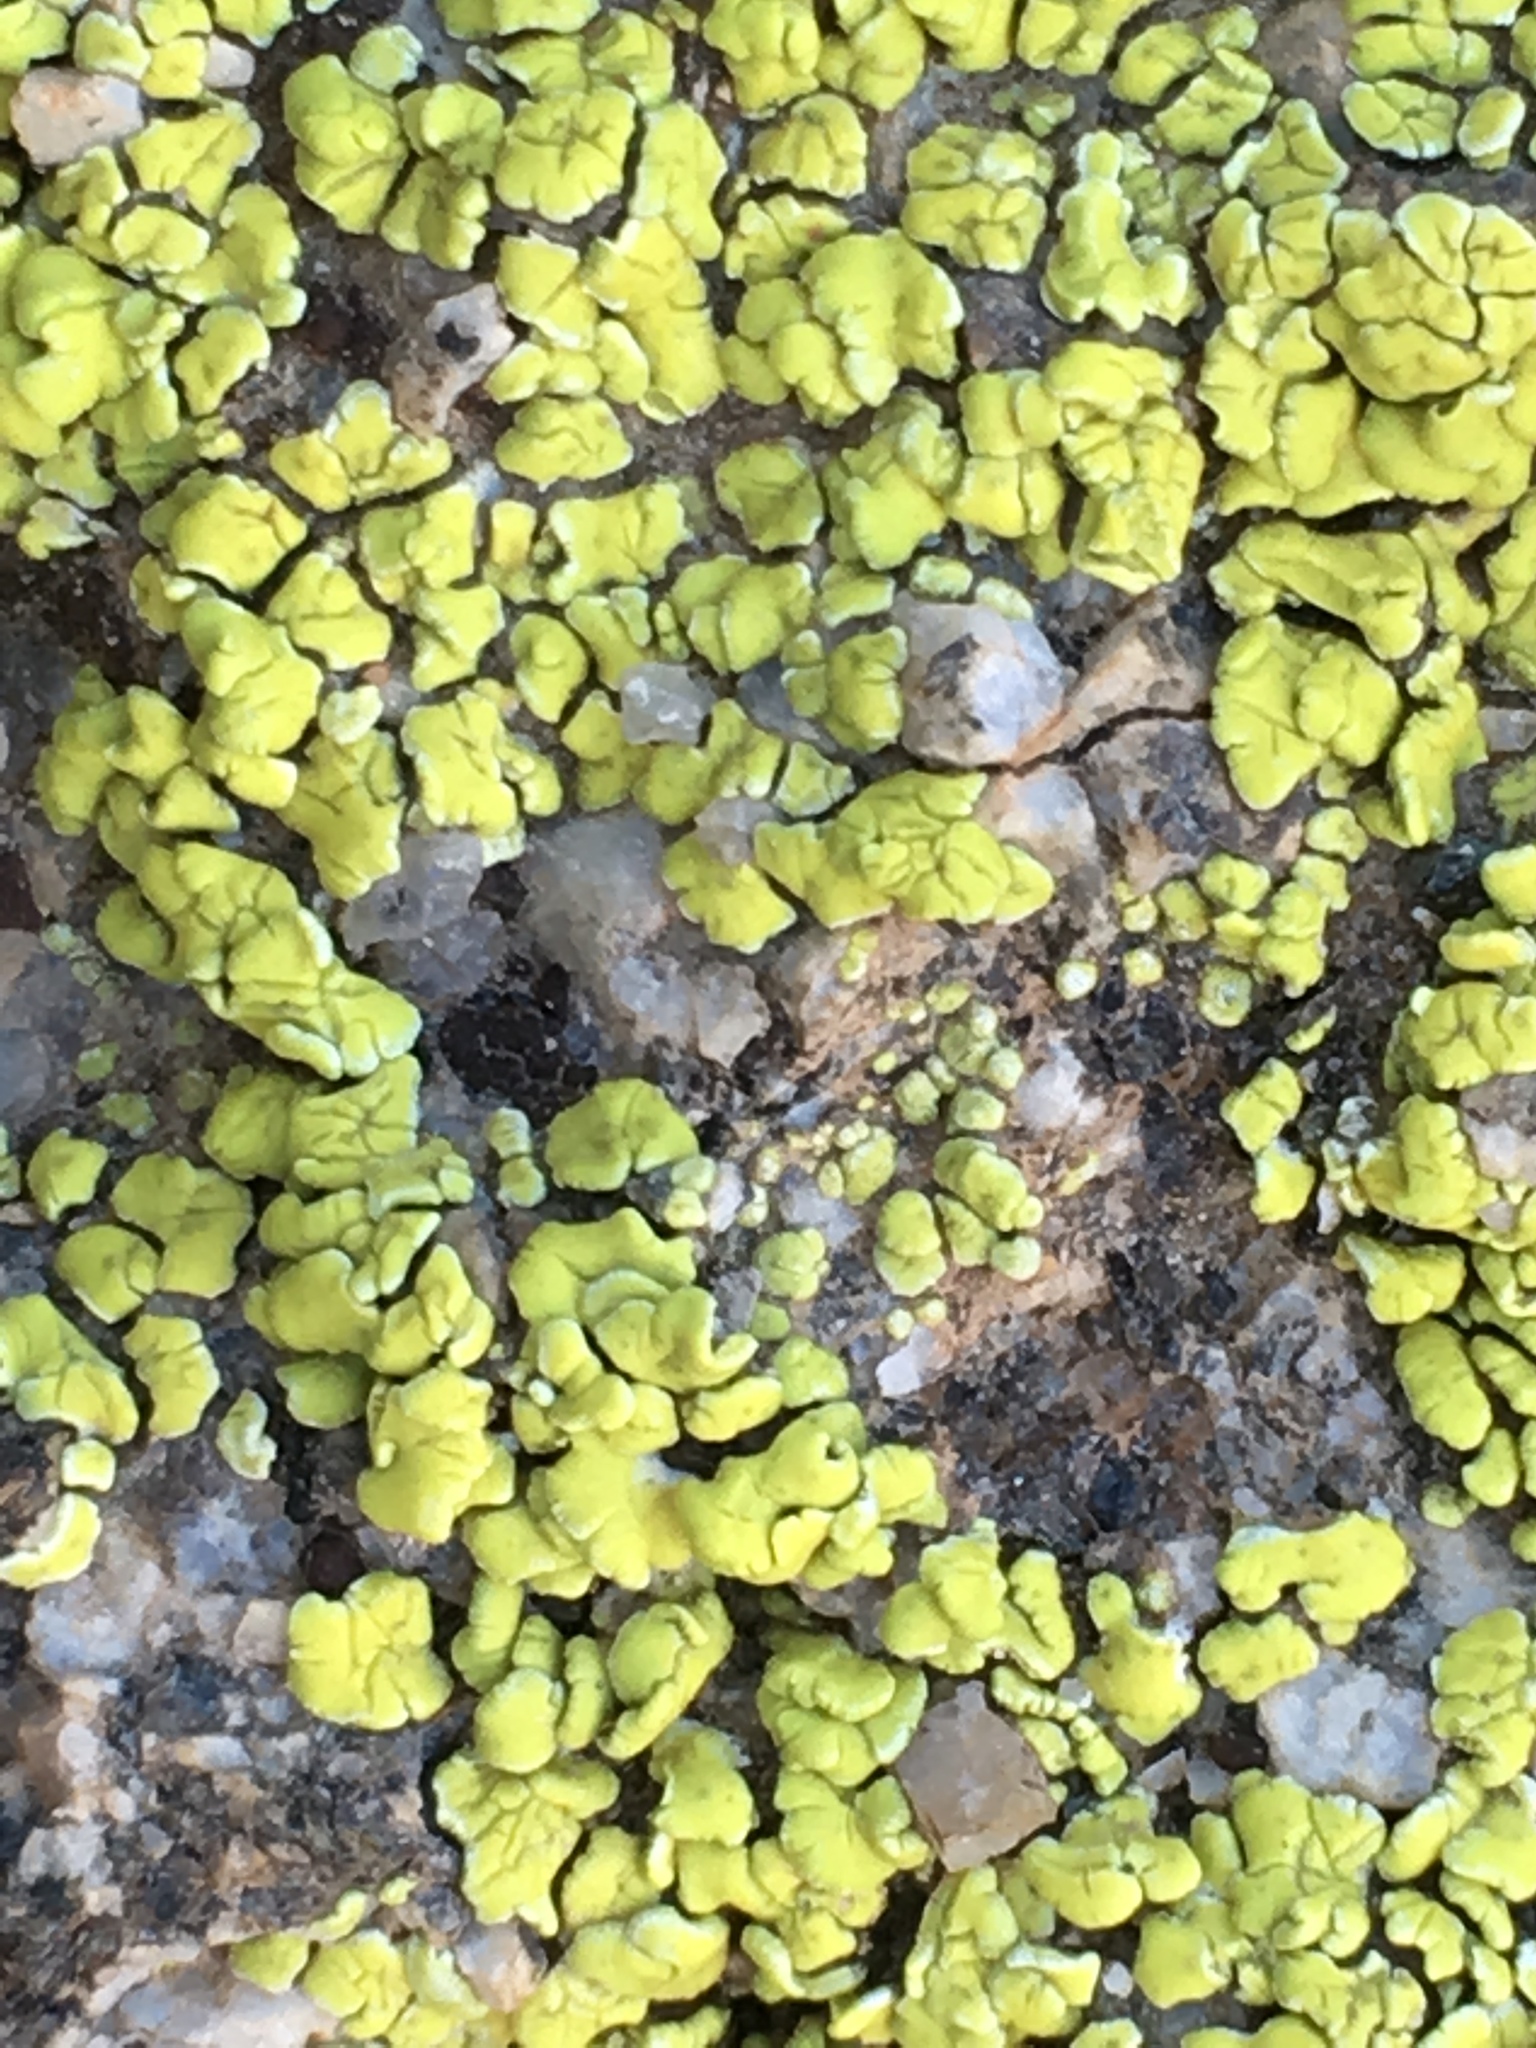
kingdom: Fungi
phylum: Ascomycota
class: Lecanoromycetes
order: Acarosporales
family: Acarosporaceae
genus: Acarospora
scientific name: Acarospora socialis
